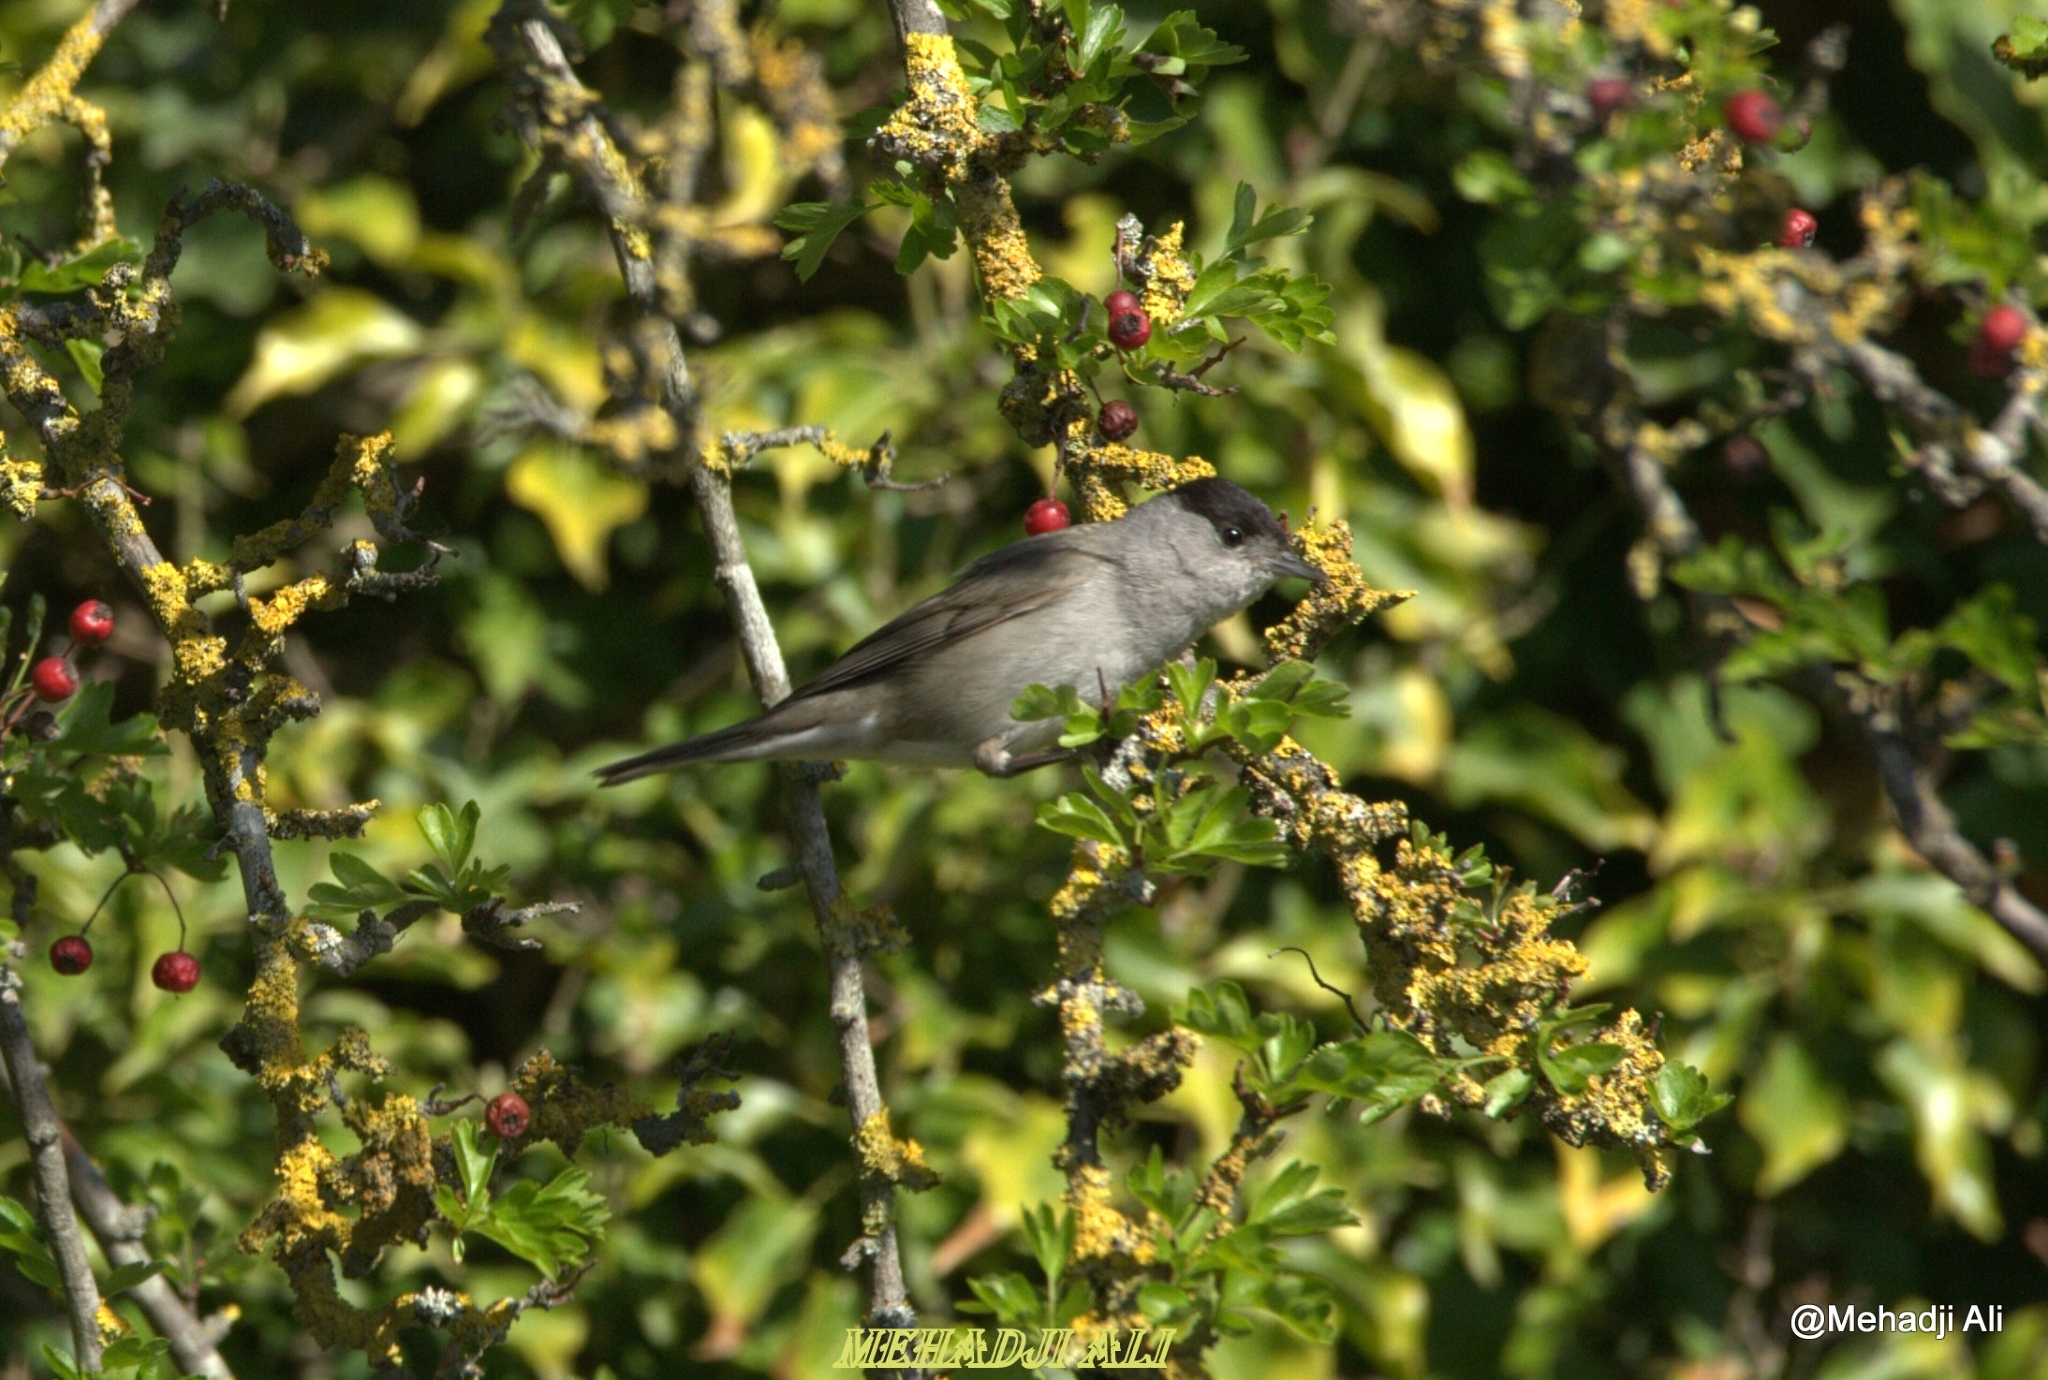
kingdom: Animalia
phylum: Chordata
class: Aves
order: Passeriformes
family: Sylviidae
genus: Sylvia
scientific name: Sylvia atricapilla
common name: Eurasian blackcap
